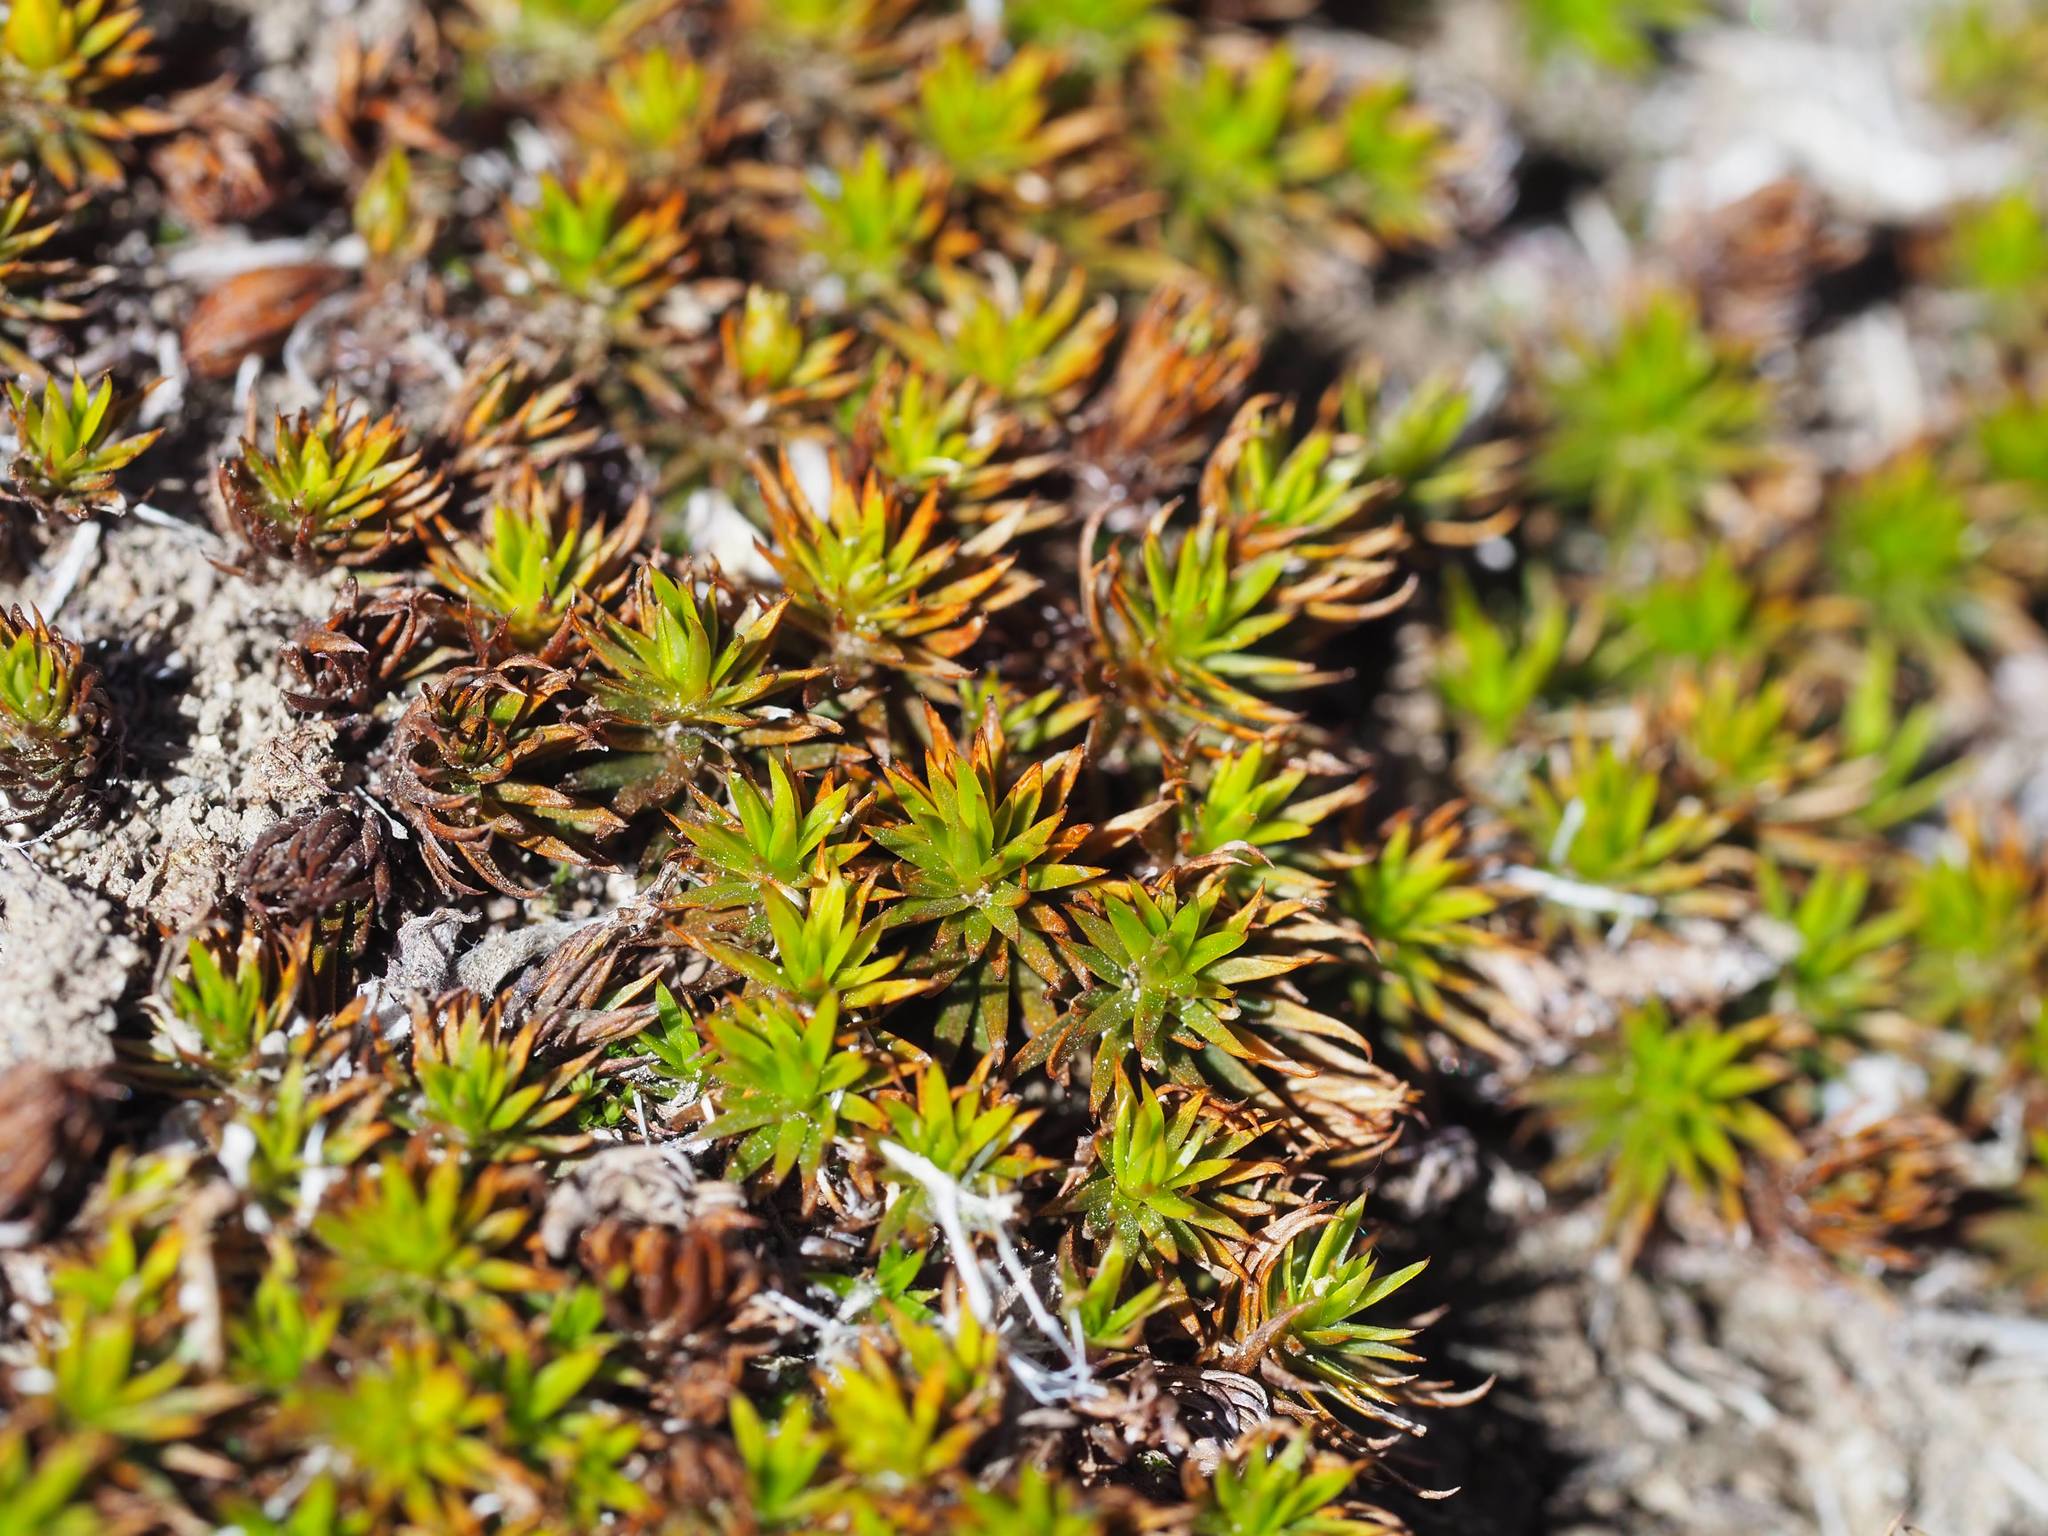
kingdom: Plantae
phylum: Bryophyta
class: Polytrichopsida
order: Polytrichales
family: Polytrichaceae
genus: Polytrichum
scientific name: Polytrichum juniperinum
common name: Juniper haircap moss
